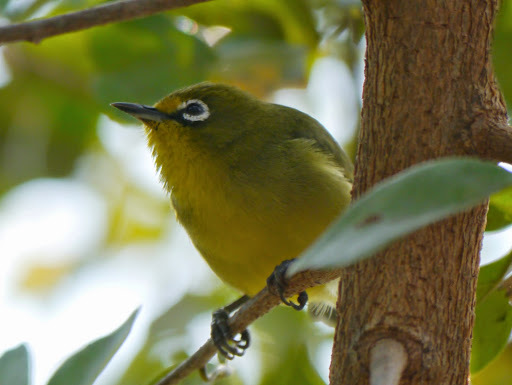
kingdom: Animalia
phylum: Chordata
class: Aves
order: Passeriformes
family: Zosteropidae
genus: Zosterops
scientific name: Zosterops virens
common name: Cape white-eye
